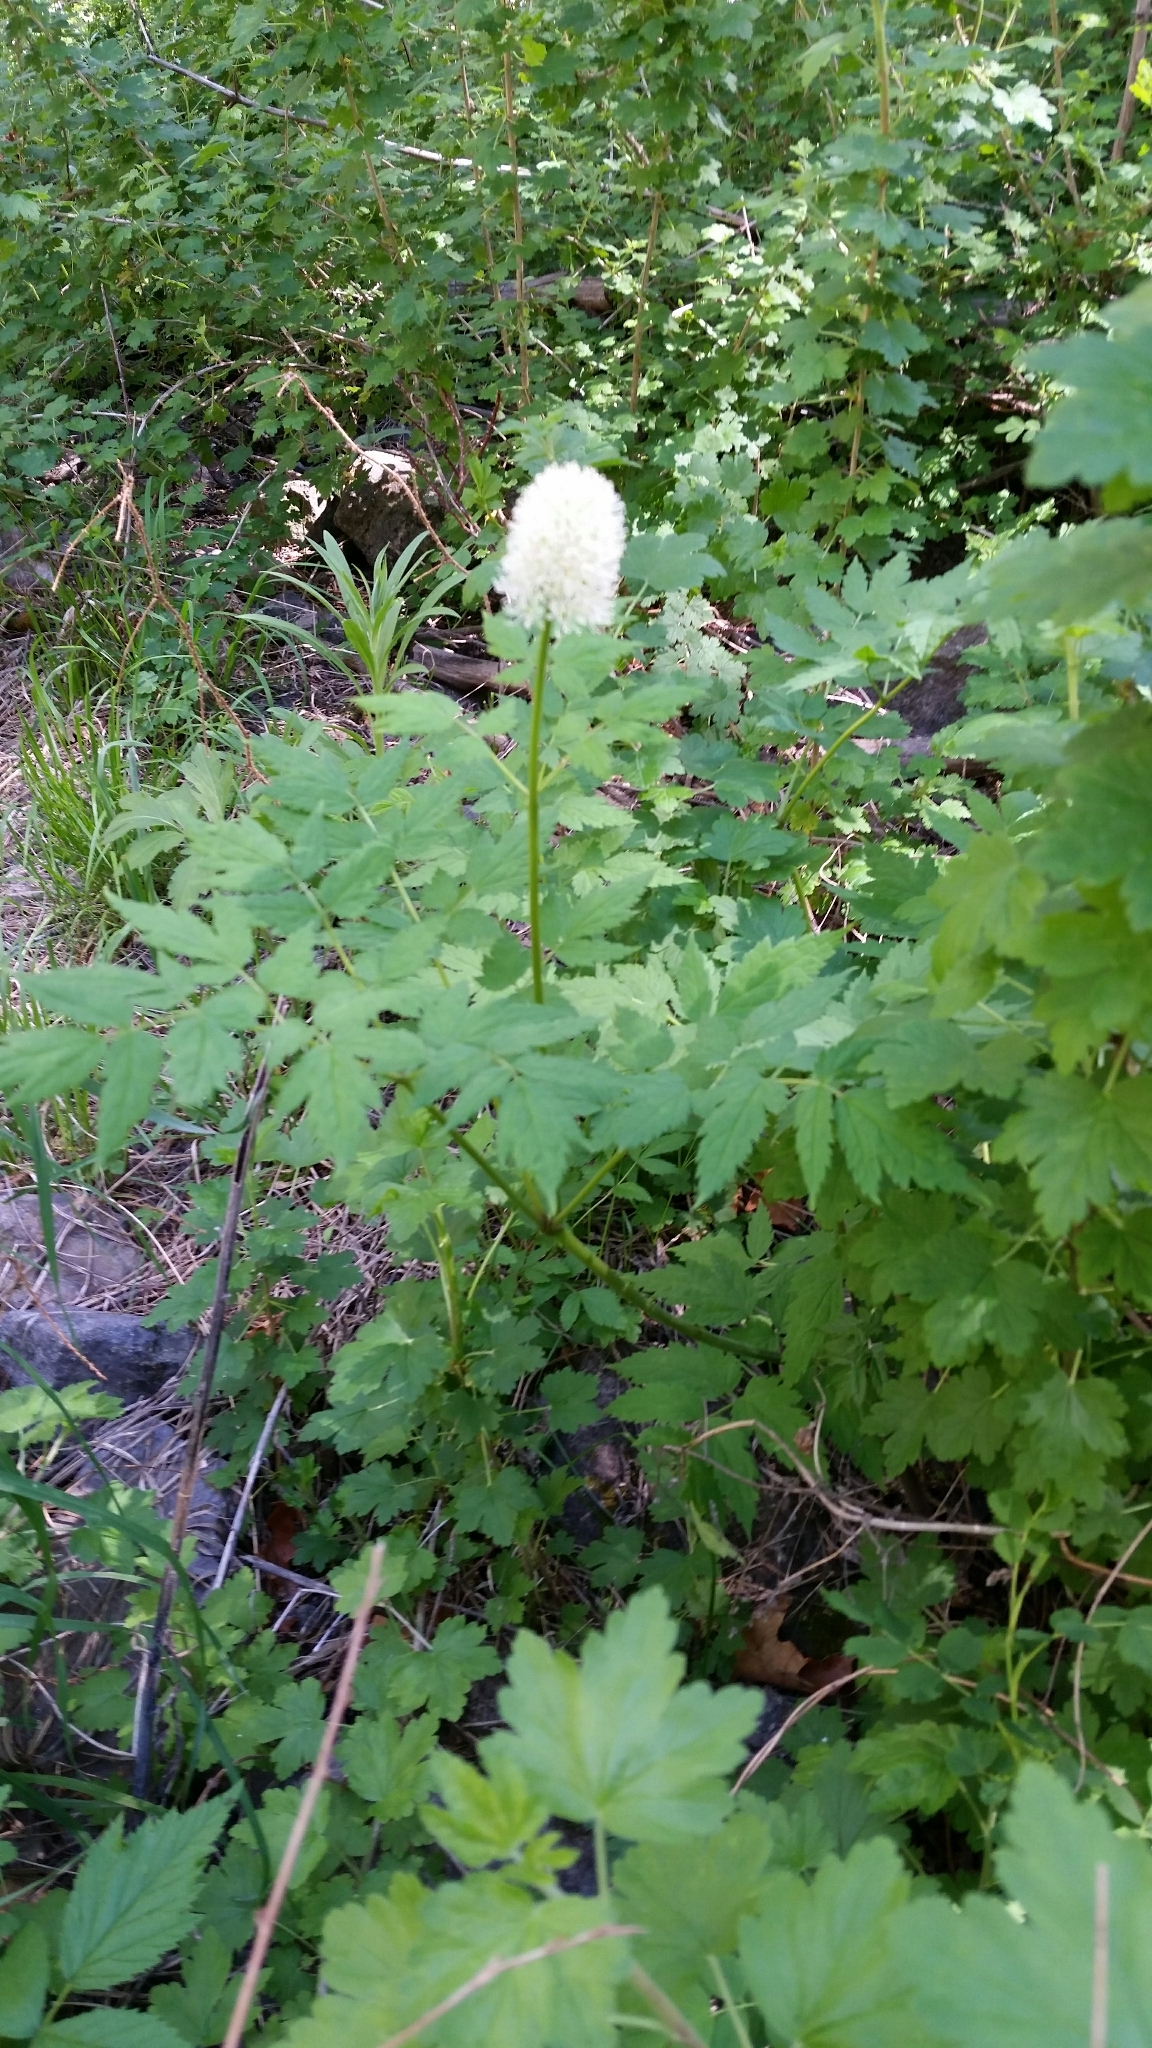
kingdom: Plantae
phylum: Tracheophyta
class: Magnoliopsida
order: Ranunculales
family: Ranunculaceae
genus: Actaea
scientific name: Actaea rubra
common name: Red baneberry
